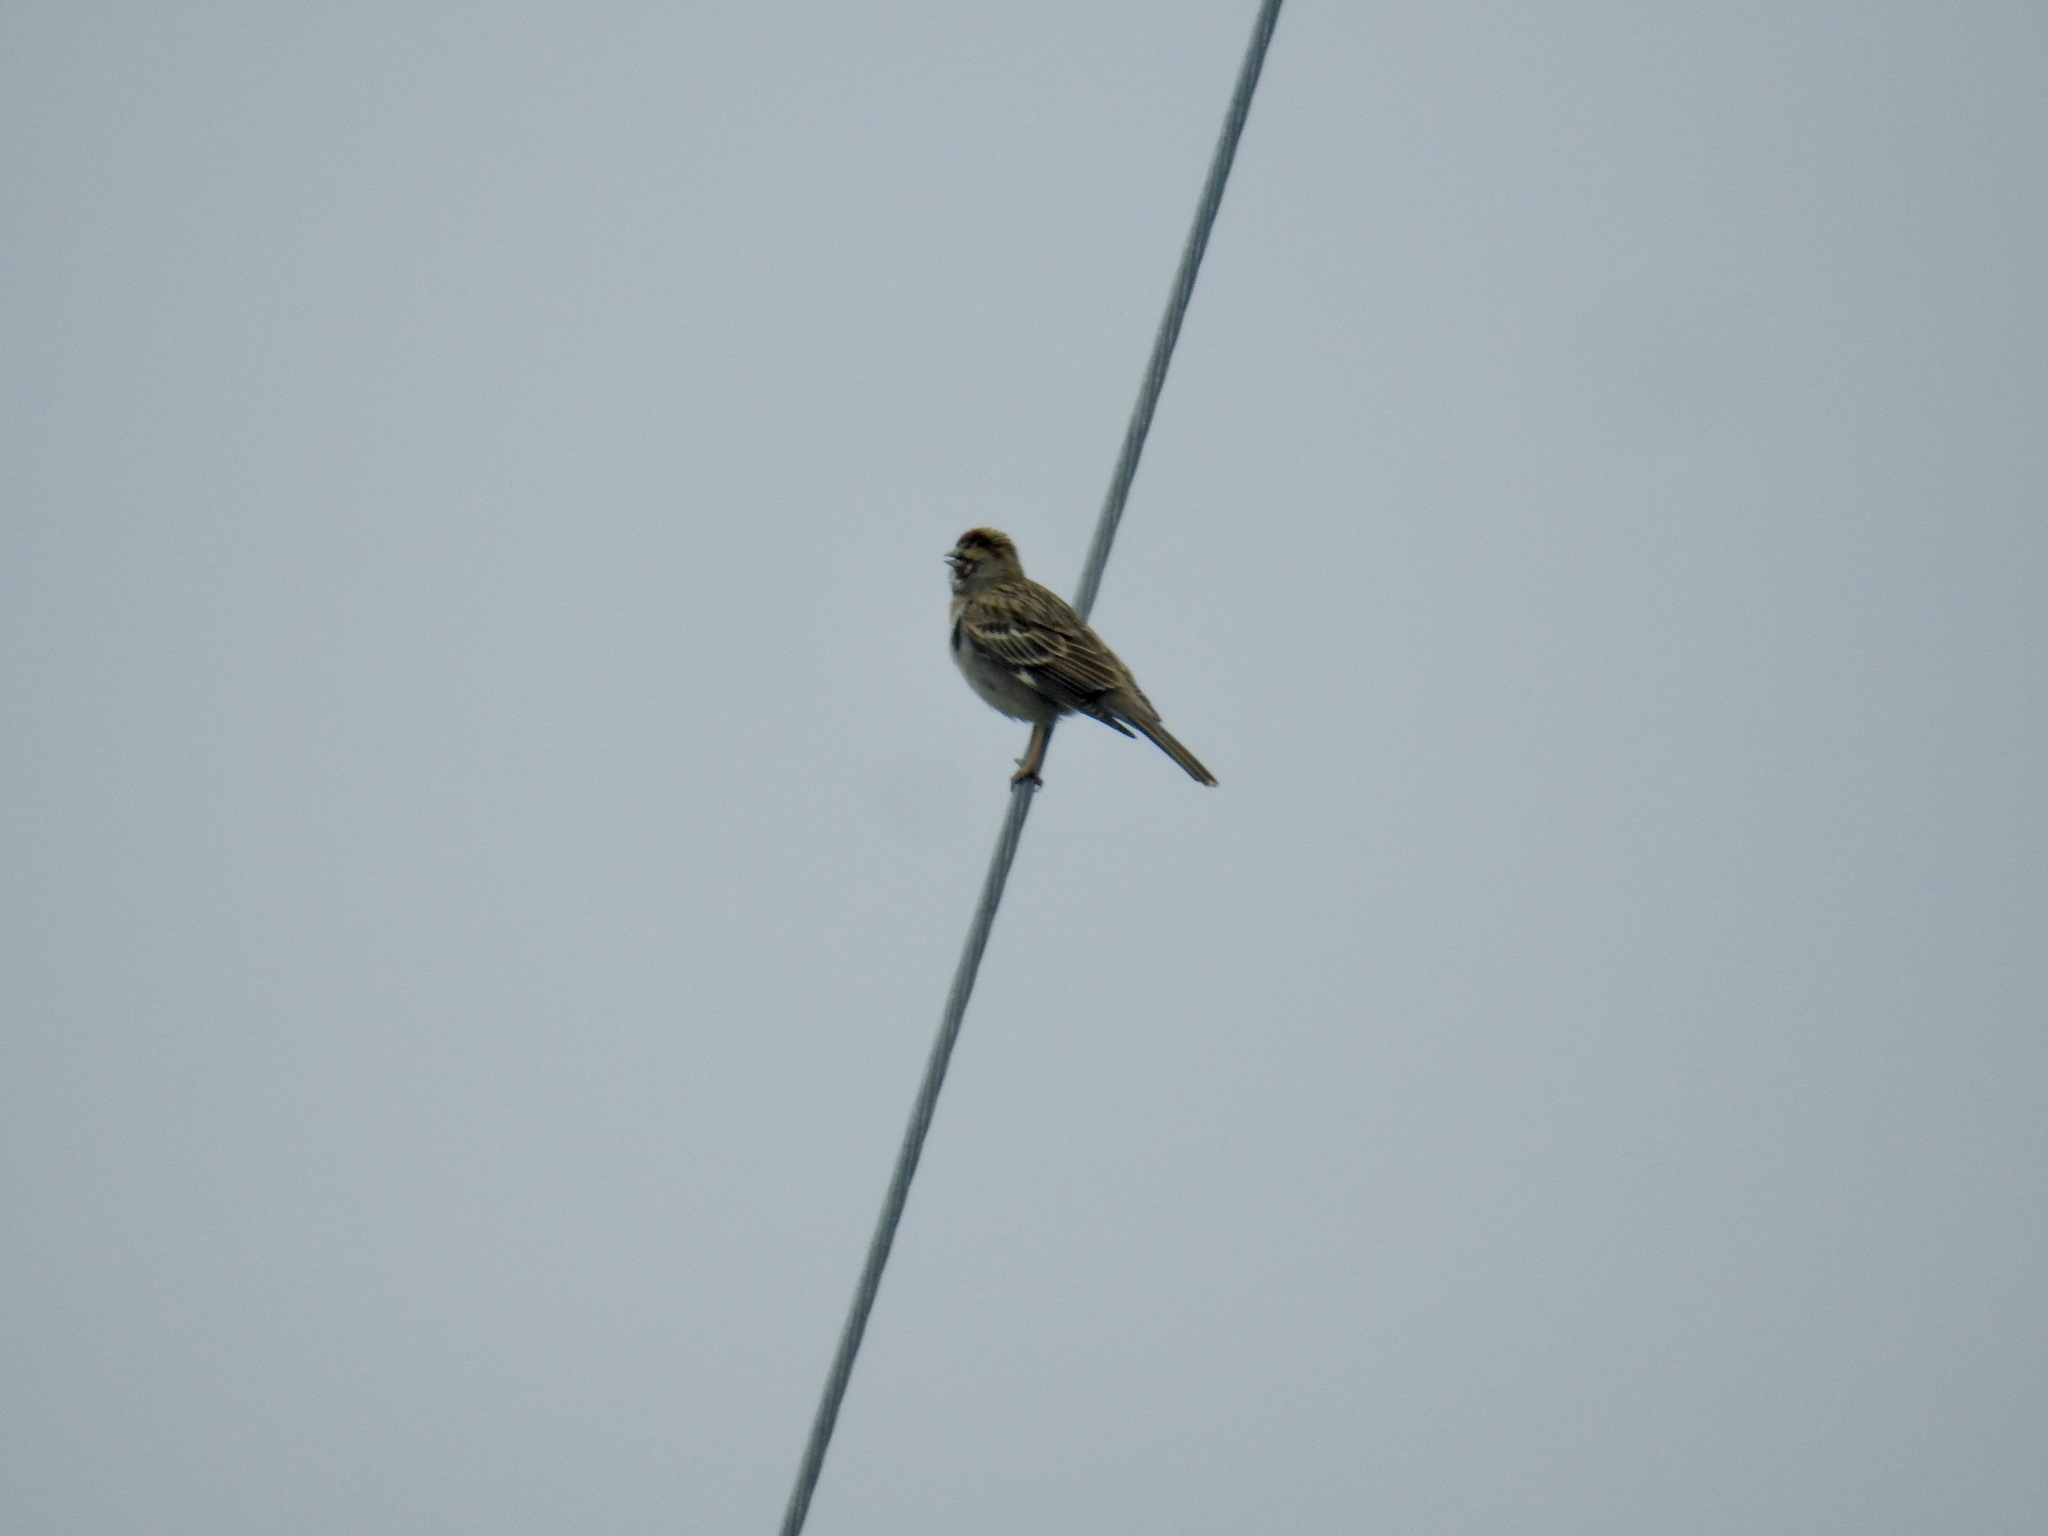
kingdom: Animalia
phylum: Chordata
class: Aves
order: Passeriformes
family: Passerellidae
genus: Chondestes
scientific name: Chondestes grammacus
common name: Lark sparrow
